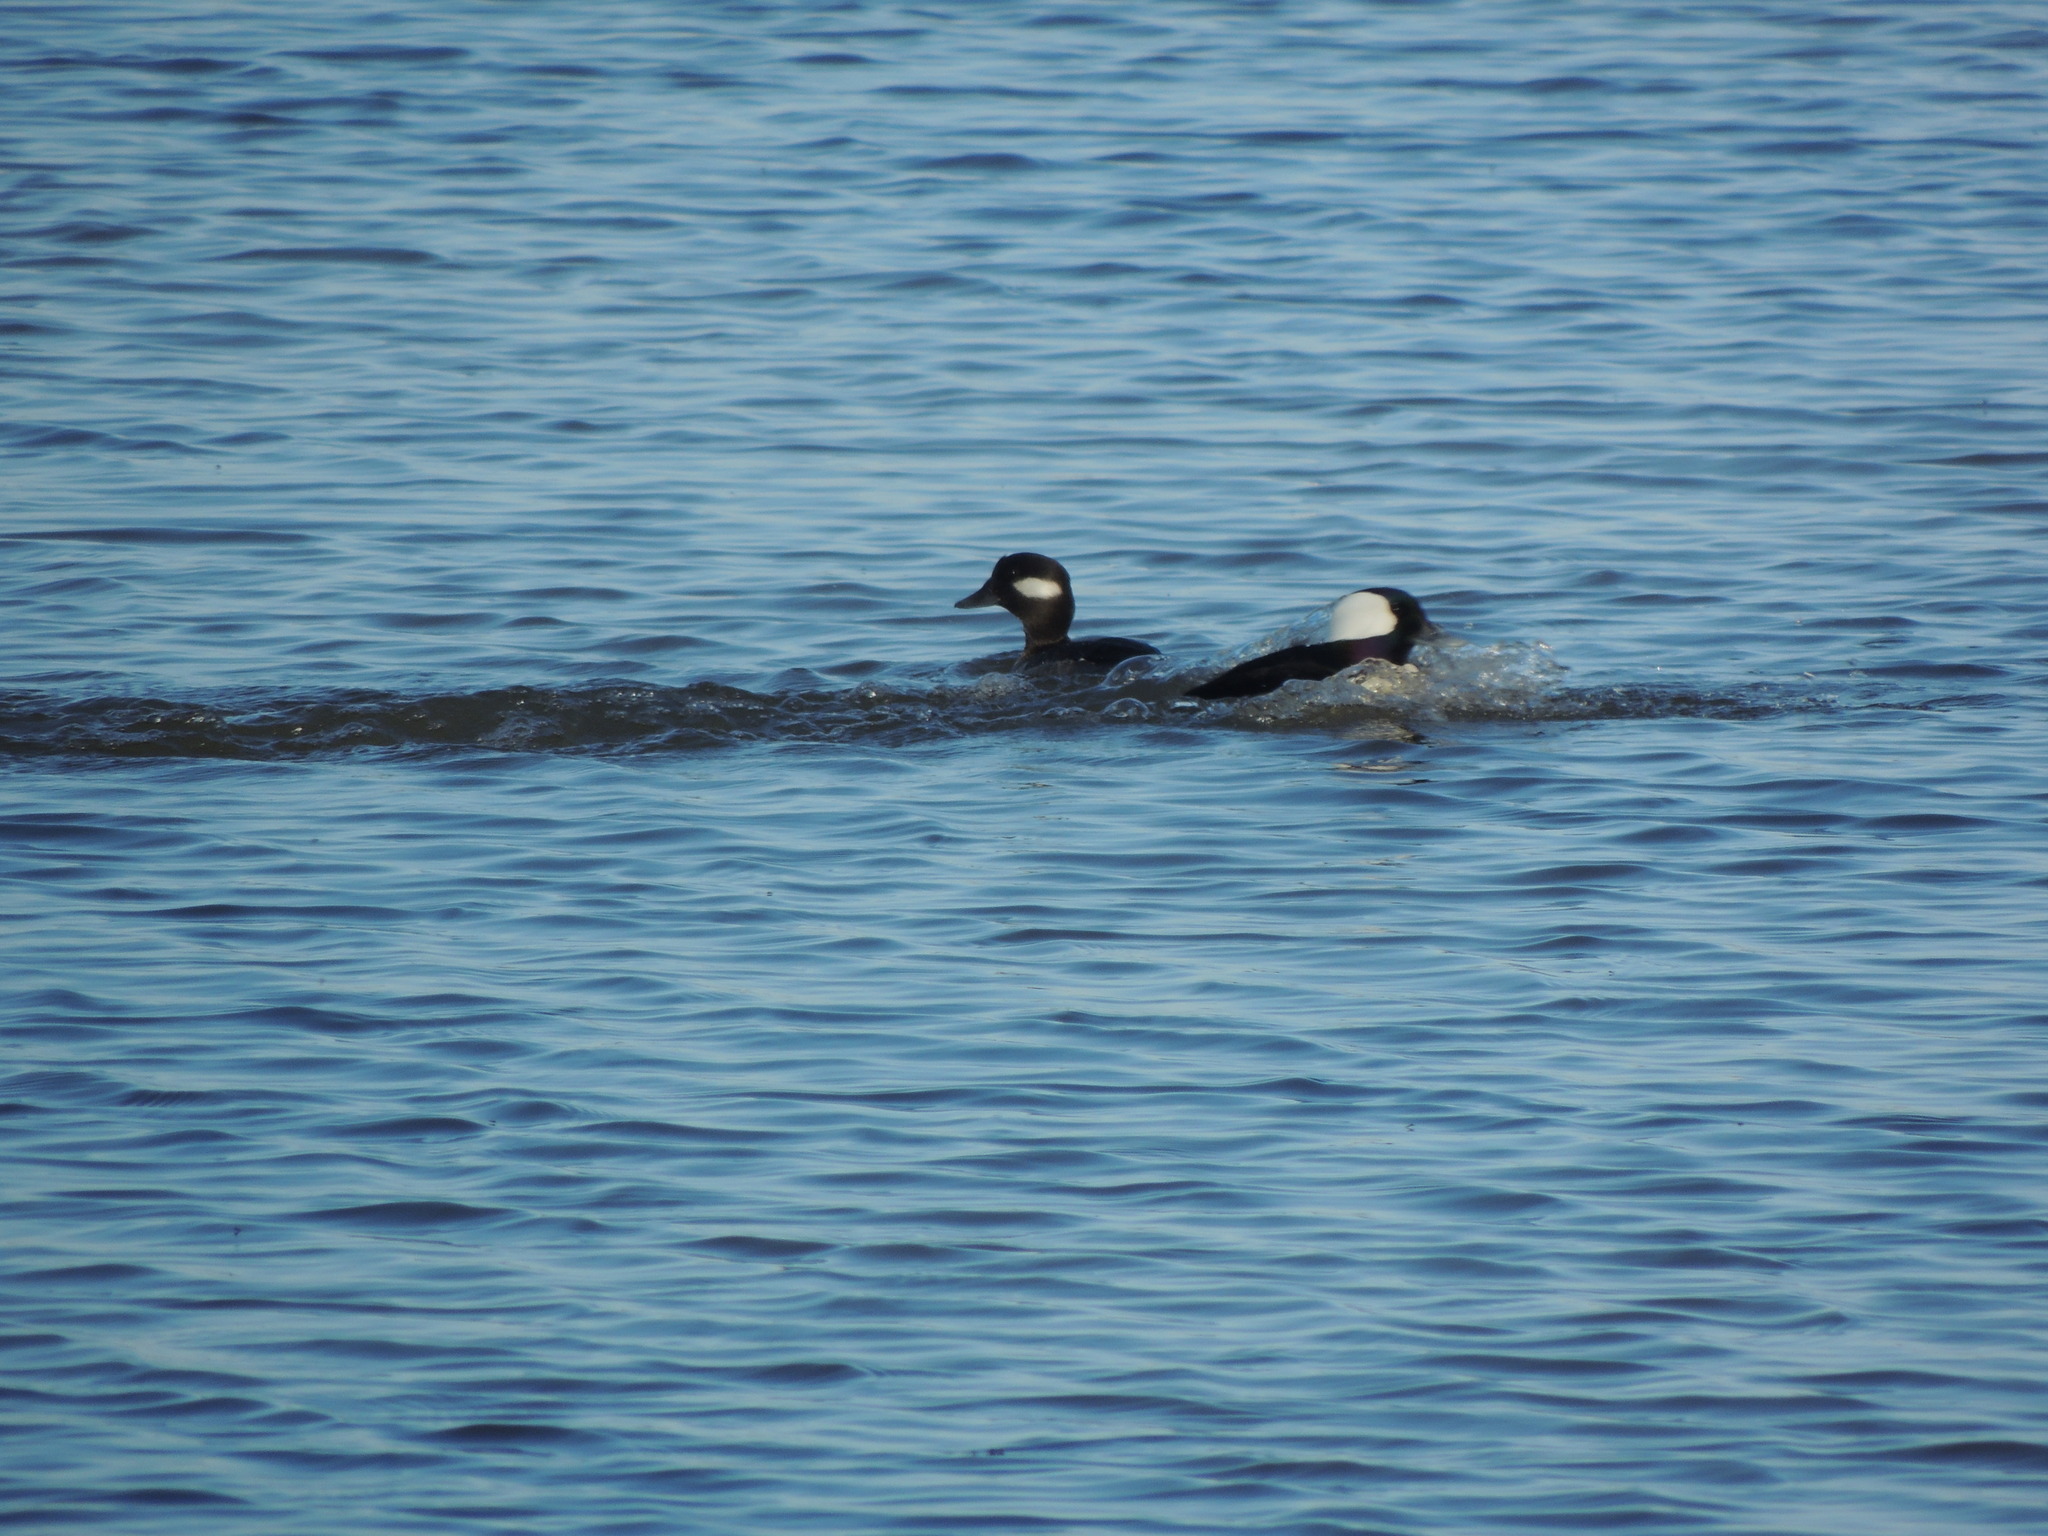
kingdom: Animalia
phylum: Chordata
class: Aves
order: Anseriformes
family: Anatidae
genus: Bucephala
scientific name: Bucephala albeola
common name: Bufflehead
